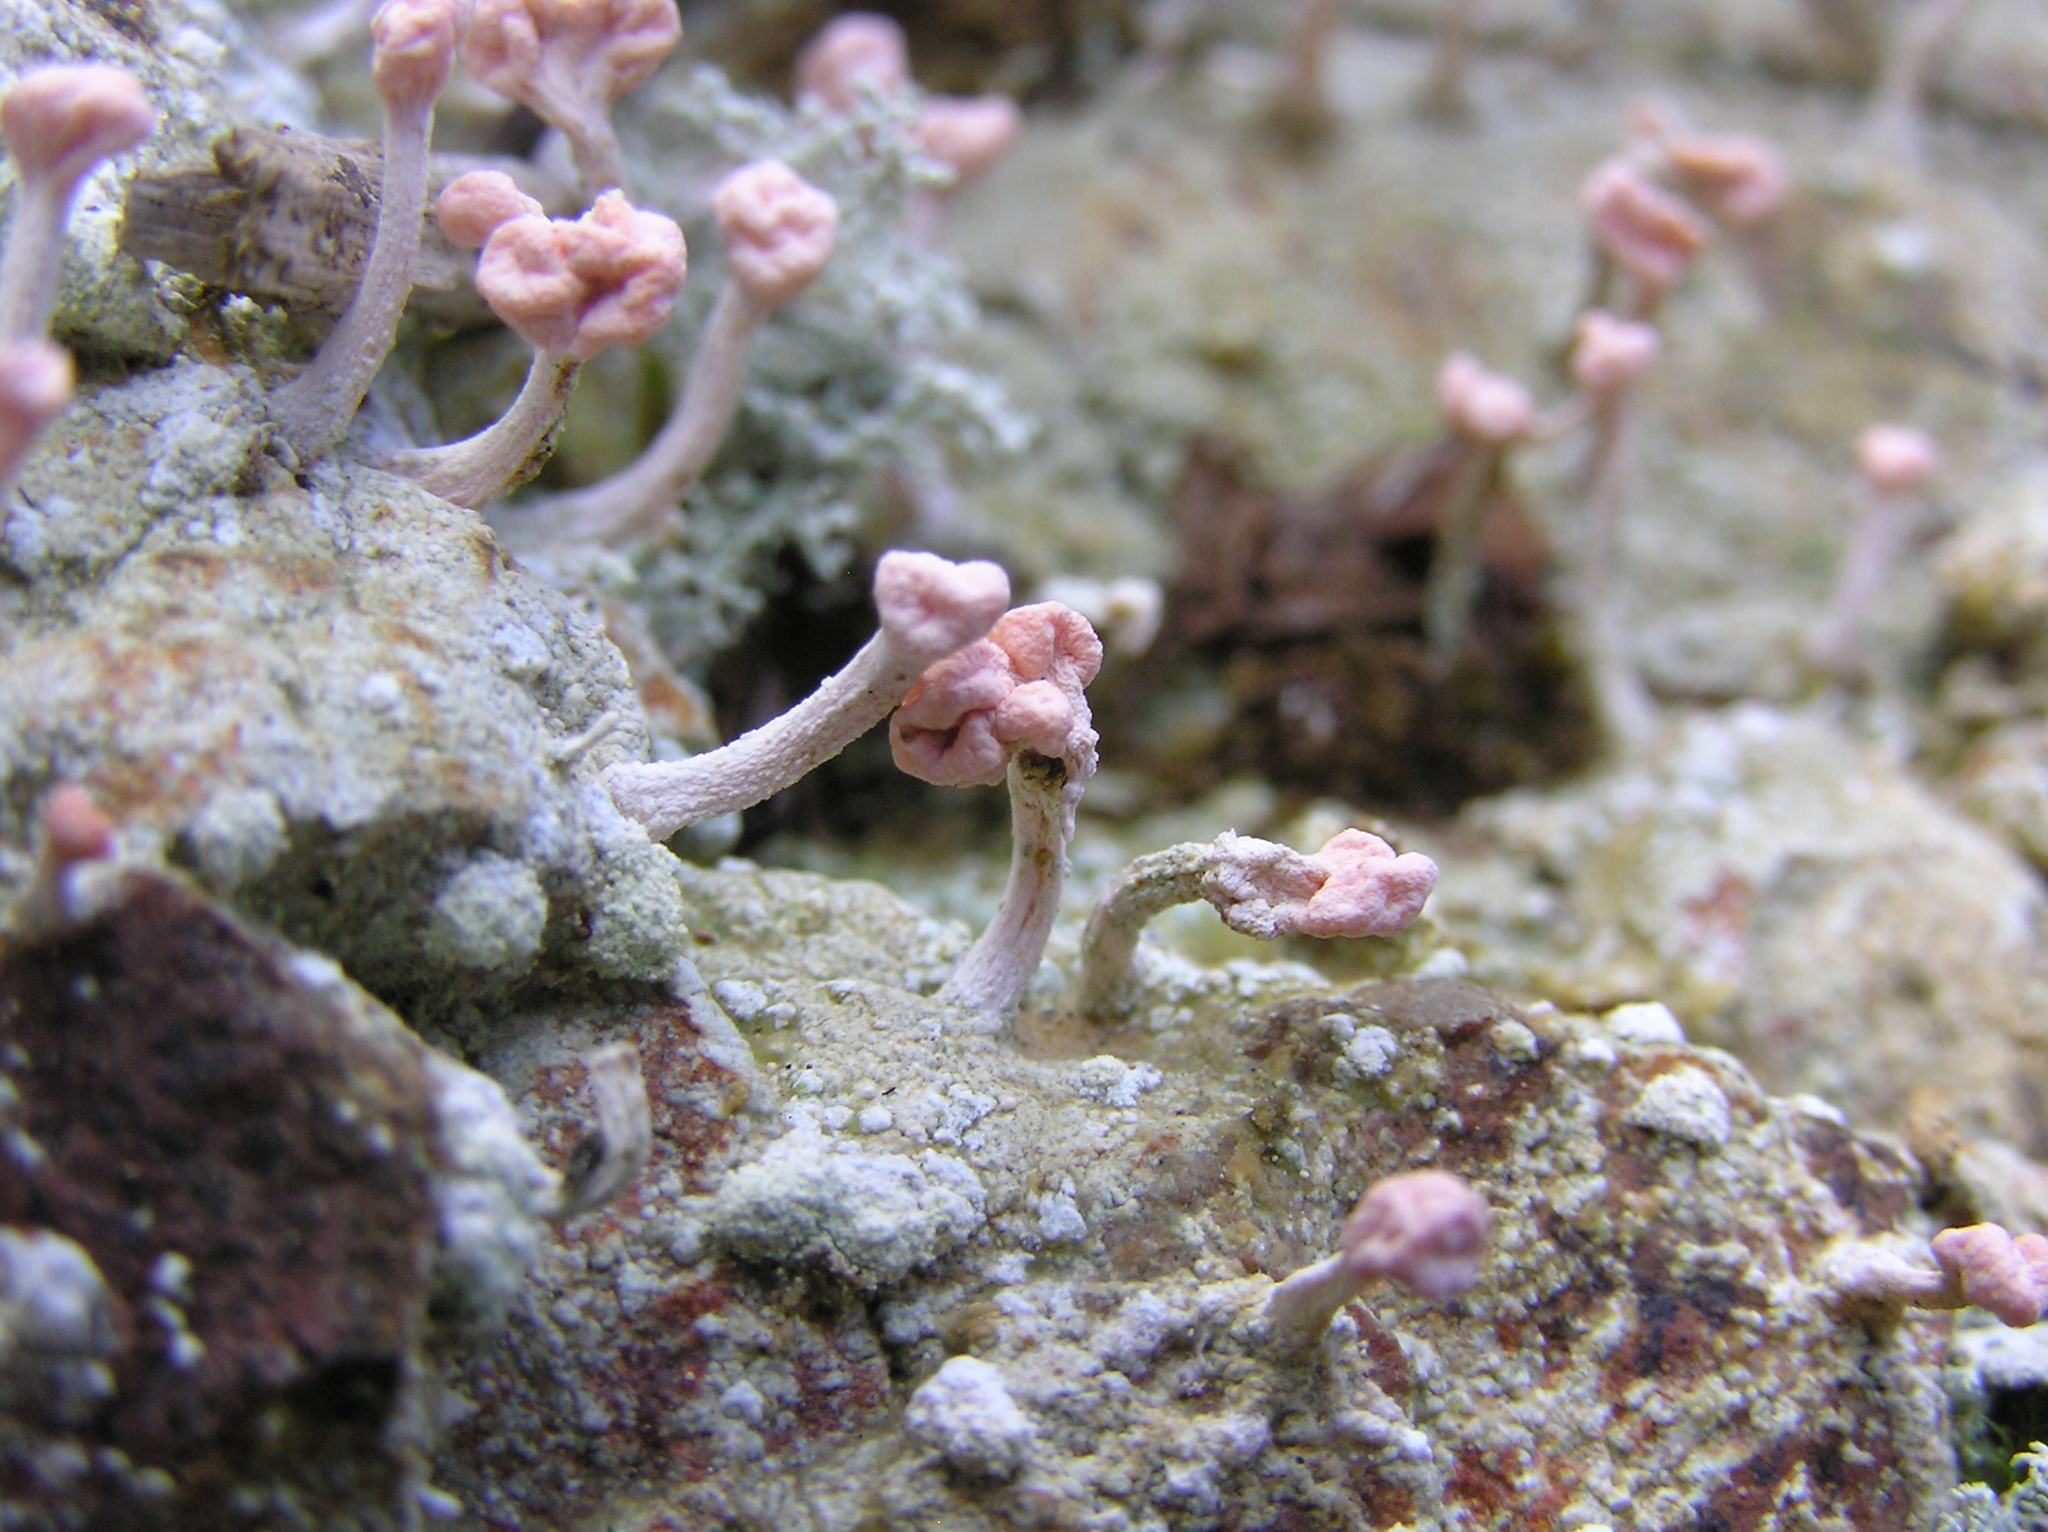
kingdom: Fungi
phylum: Ascomycota
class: Lecanoromycetes
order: Pertusariales
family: Icmadophilaceae
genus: Dibaeis
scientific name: Dibaeis arcuata
